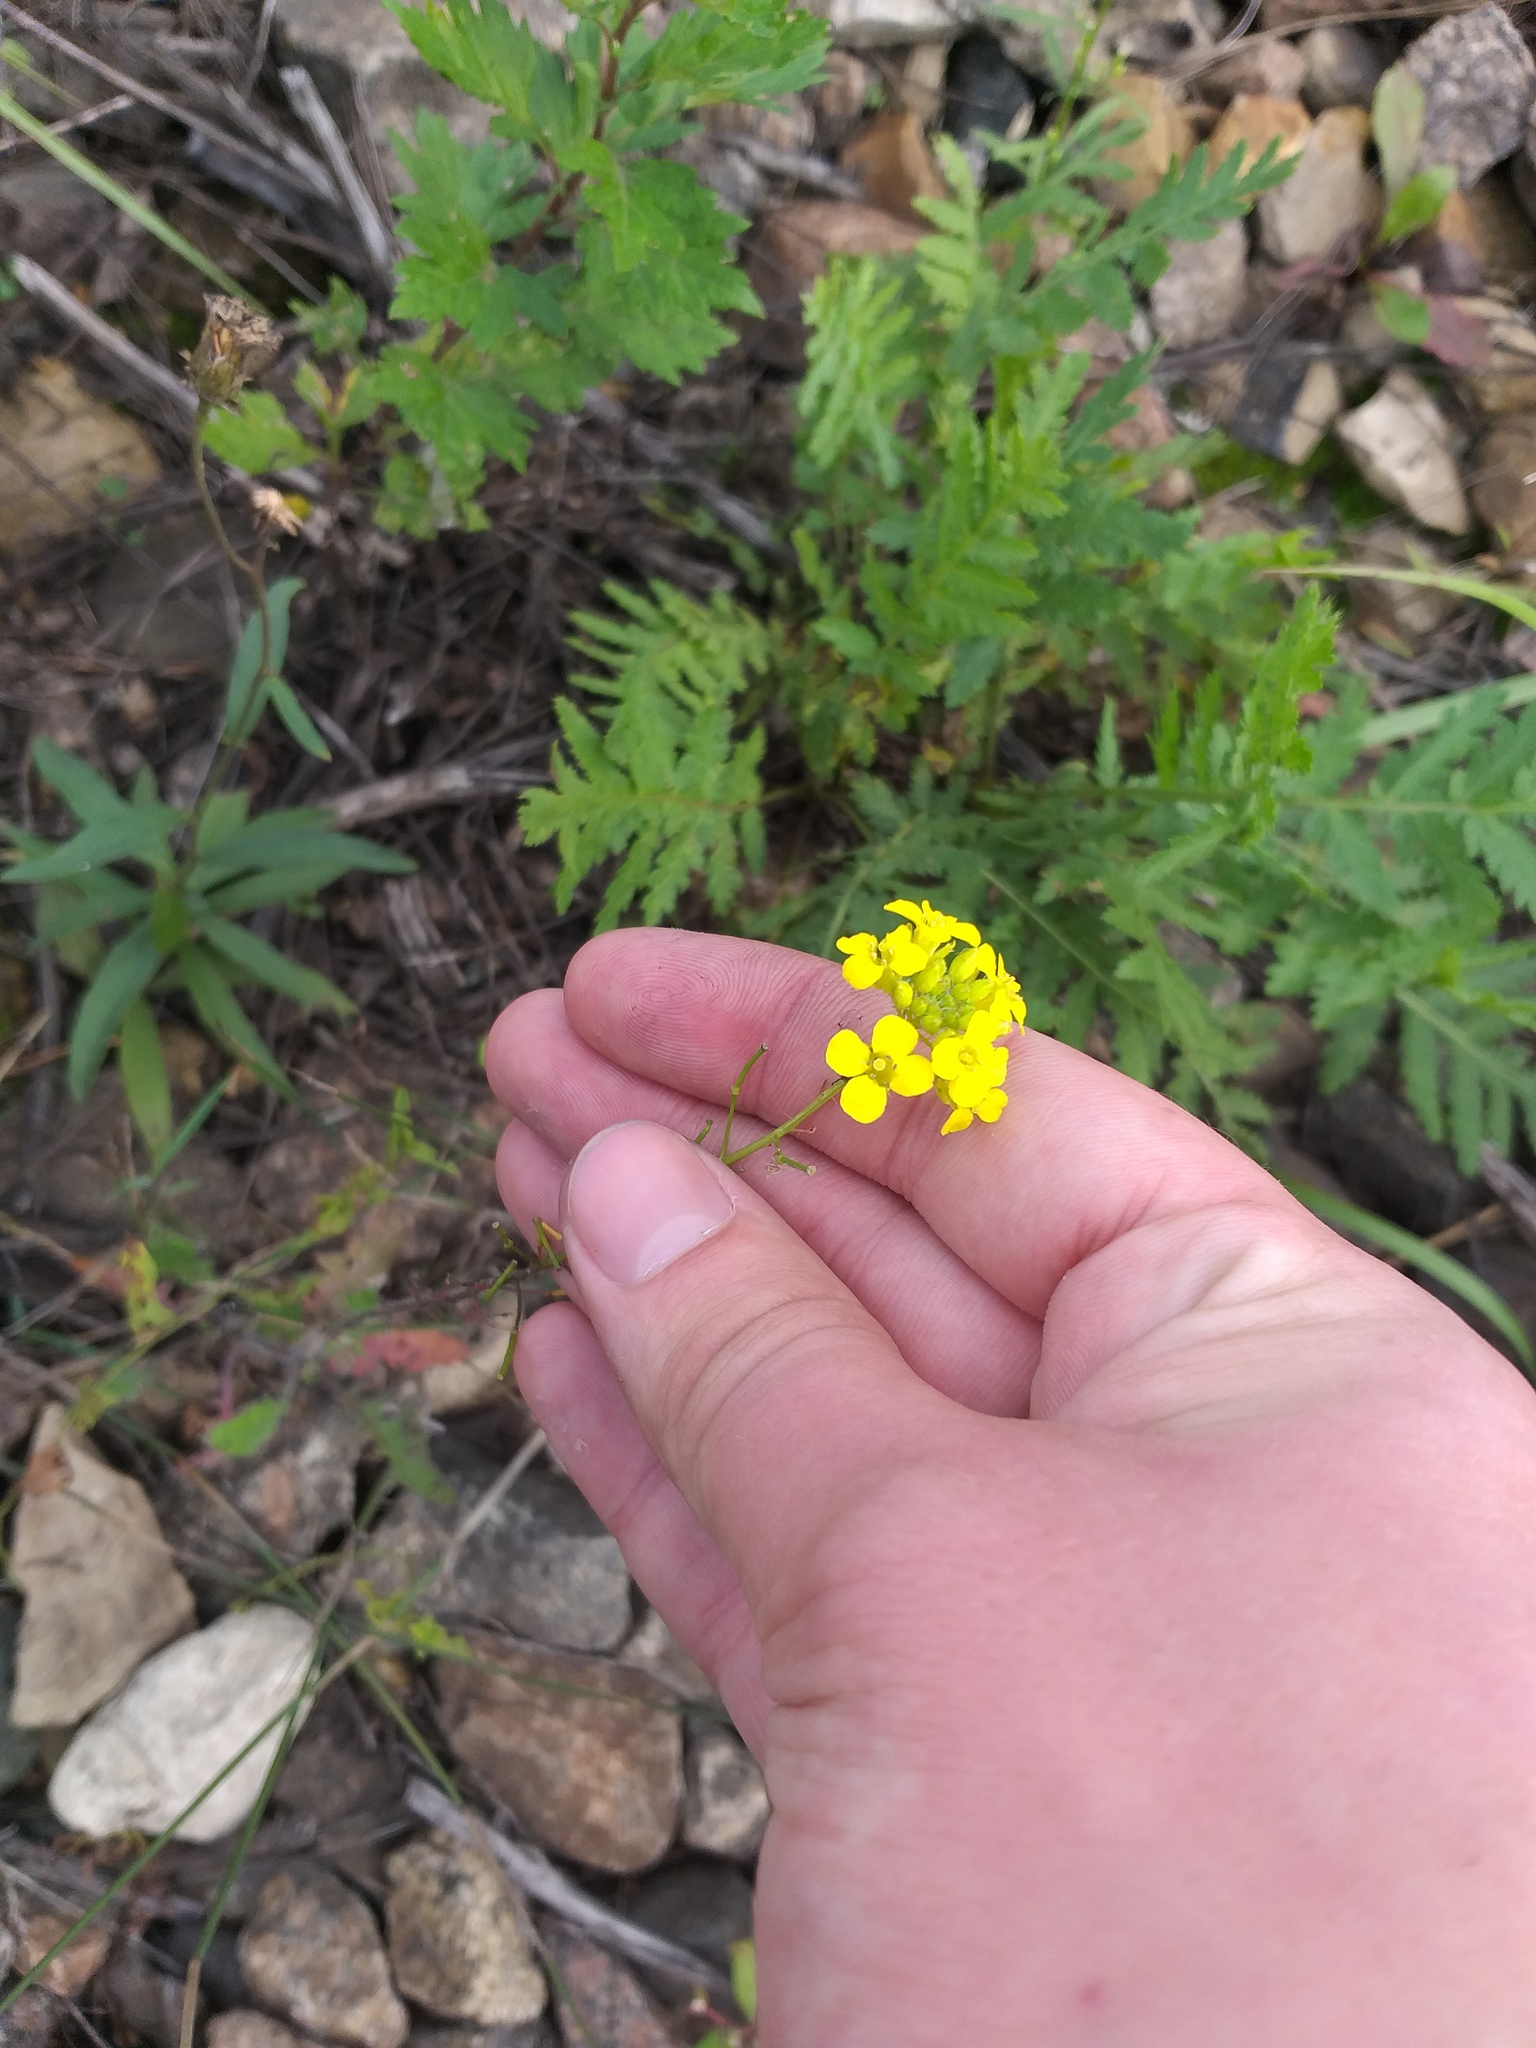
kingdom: Plantae
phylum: Tracheophyta
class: Magnoliopsida
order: Brassicales
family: Brassicaceae
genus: Sisymbrium
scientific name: Sisymbrium loeselii
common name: False london-rocket
